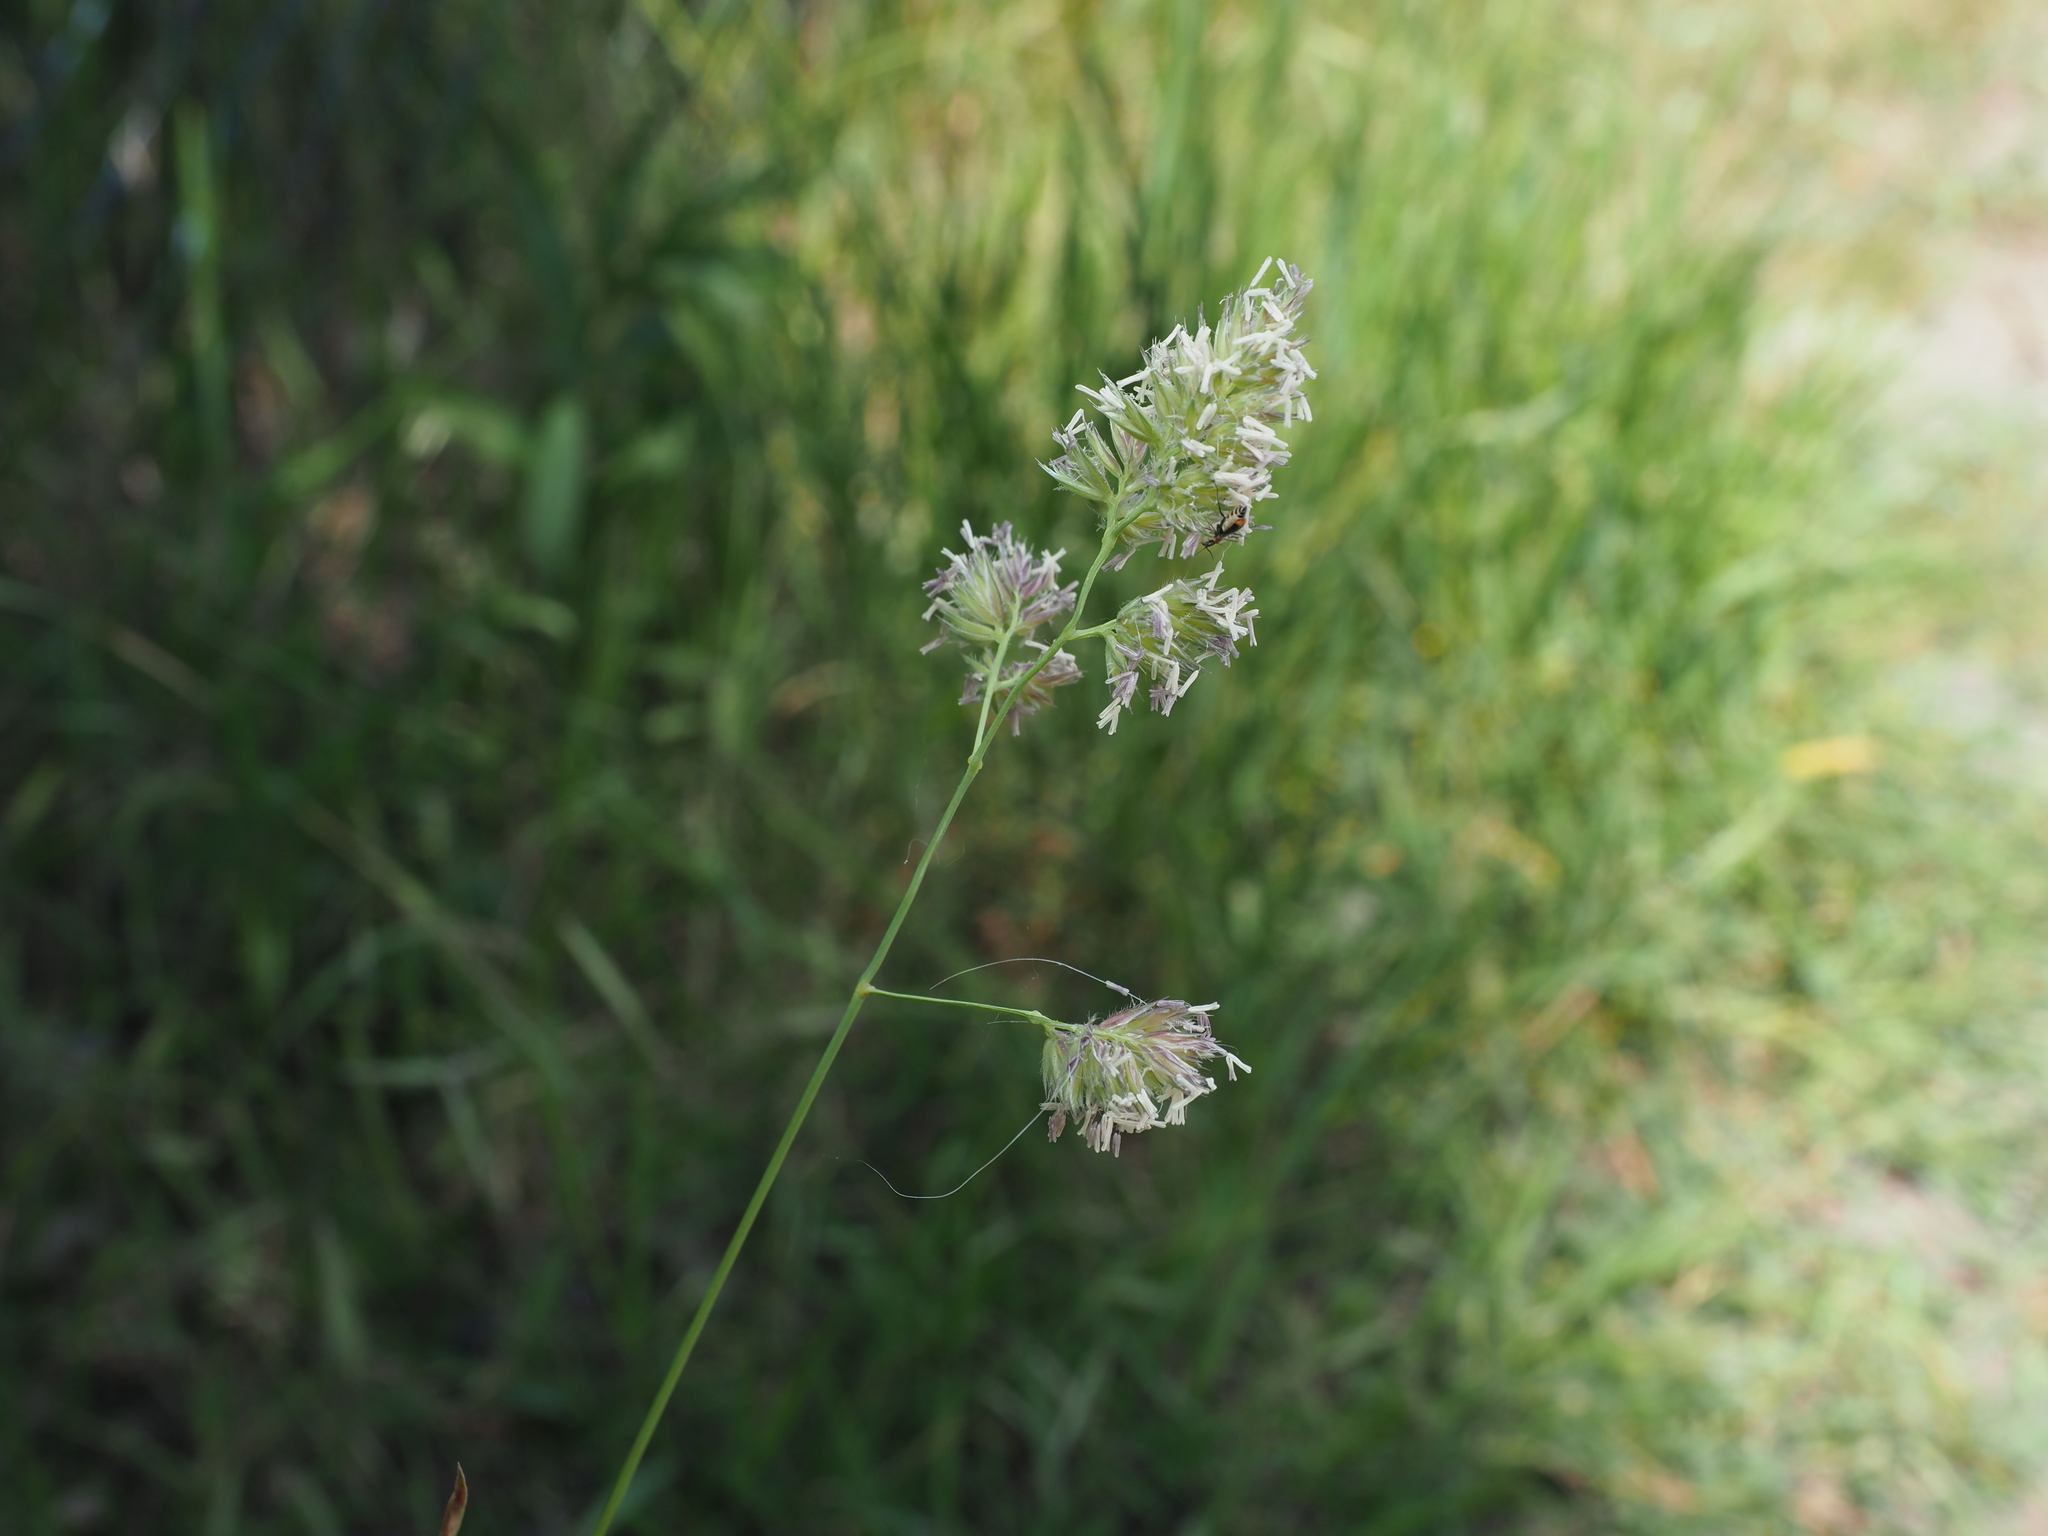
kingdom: Plantae
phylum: Tracheophyta
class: Liliopsida
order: Poales
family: Poaceae
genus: Dactylis
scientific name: Dactylis glomerata
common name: Orchardgrass
